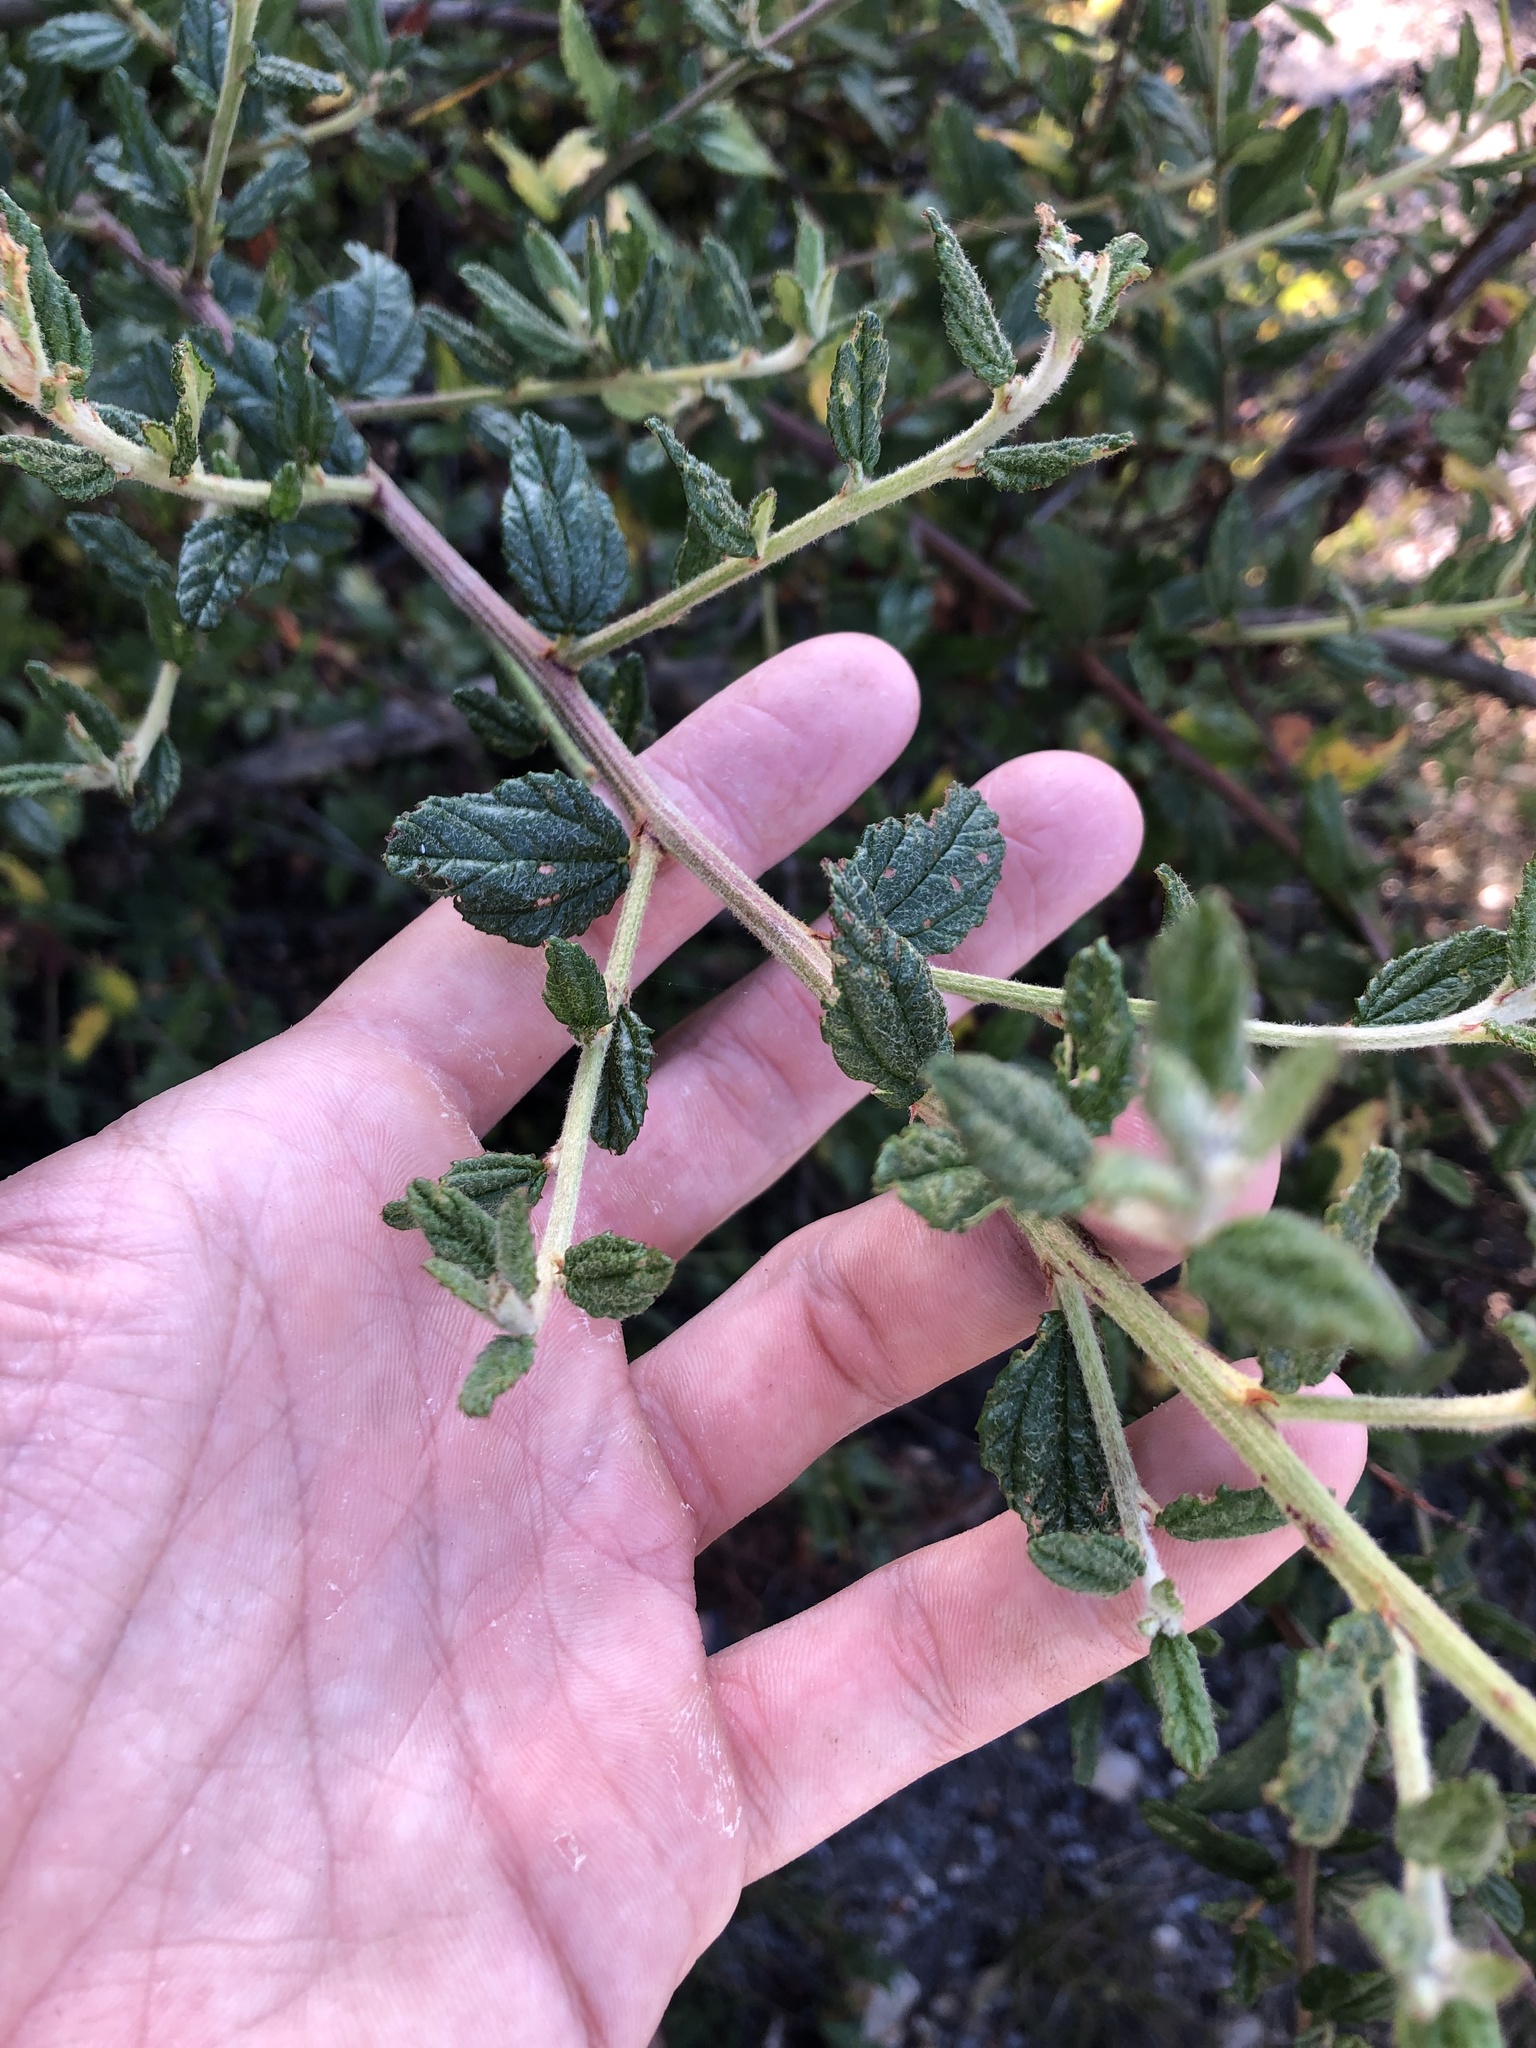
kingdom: Plantae
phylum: Tracheophyta
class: Magnoliopsida
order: Rosales
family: Rhamnaceae
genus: Ceanothus
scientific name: Ceanothus thyrsiflorus
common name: California-lilac
